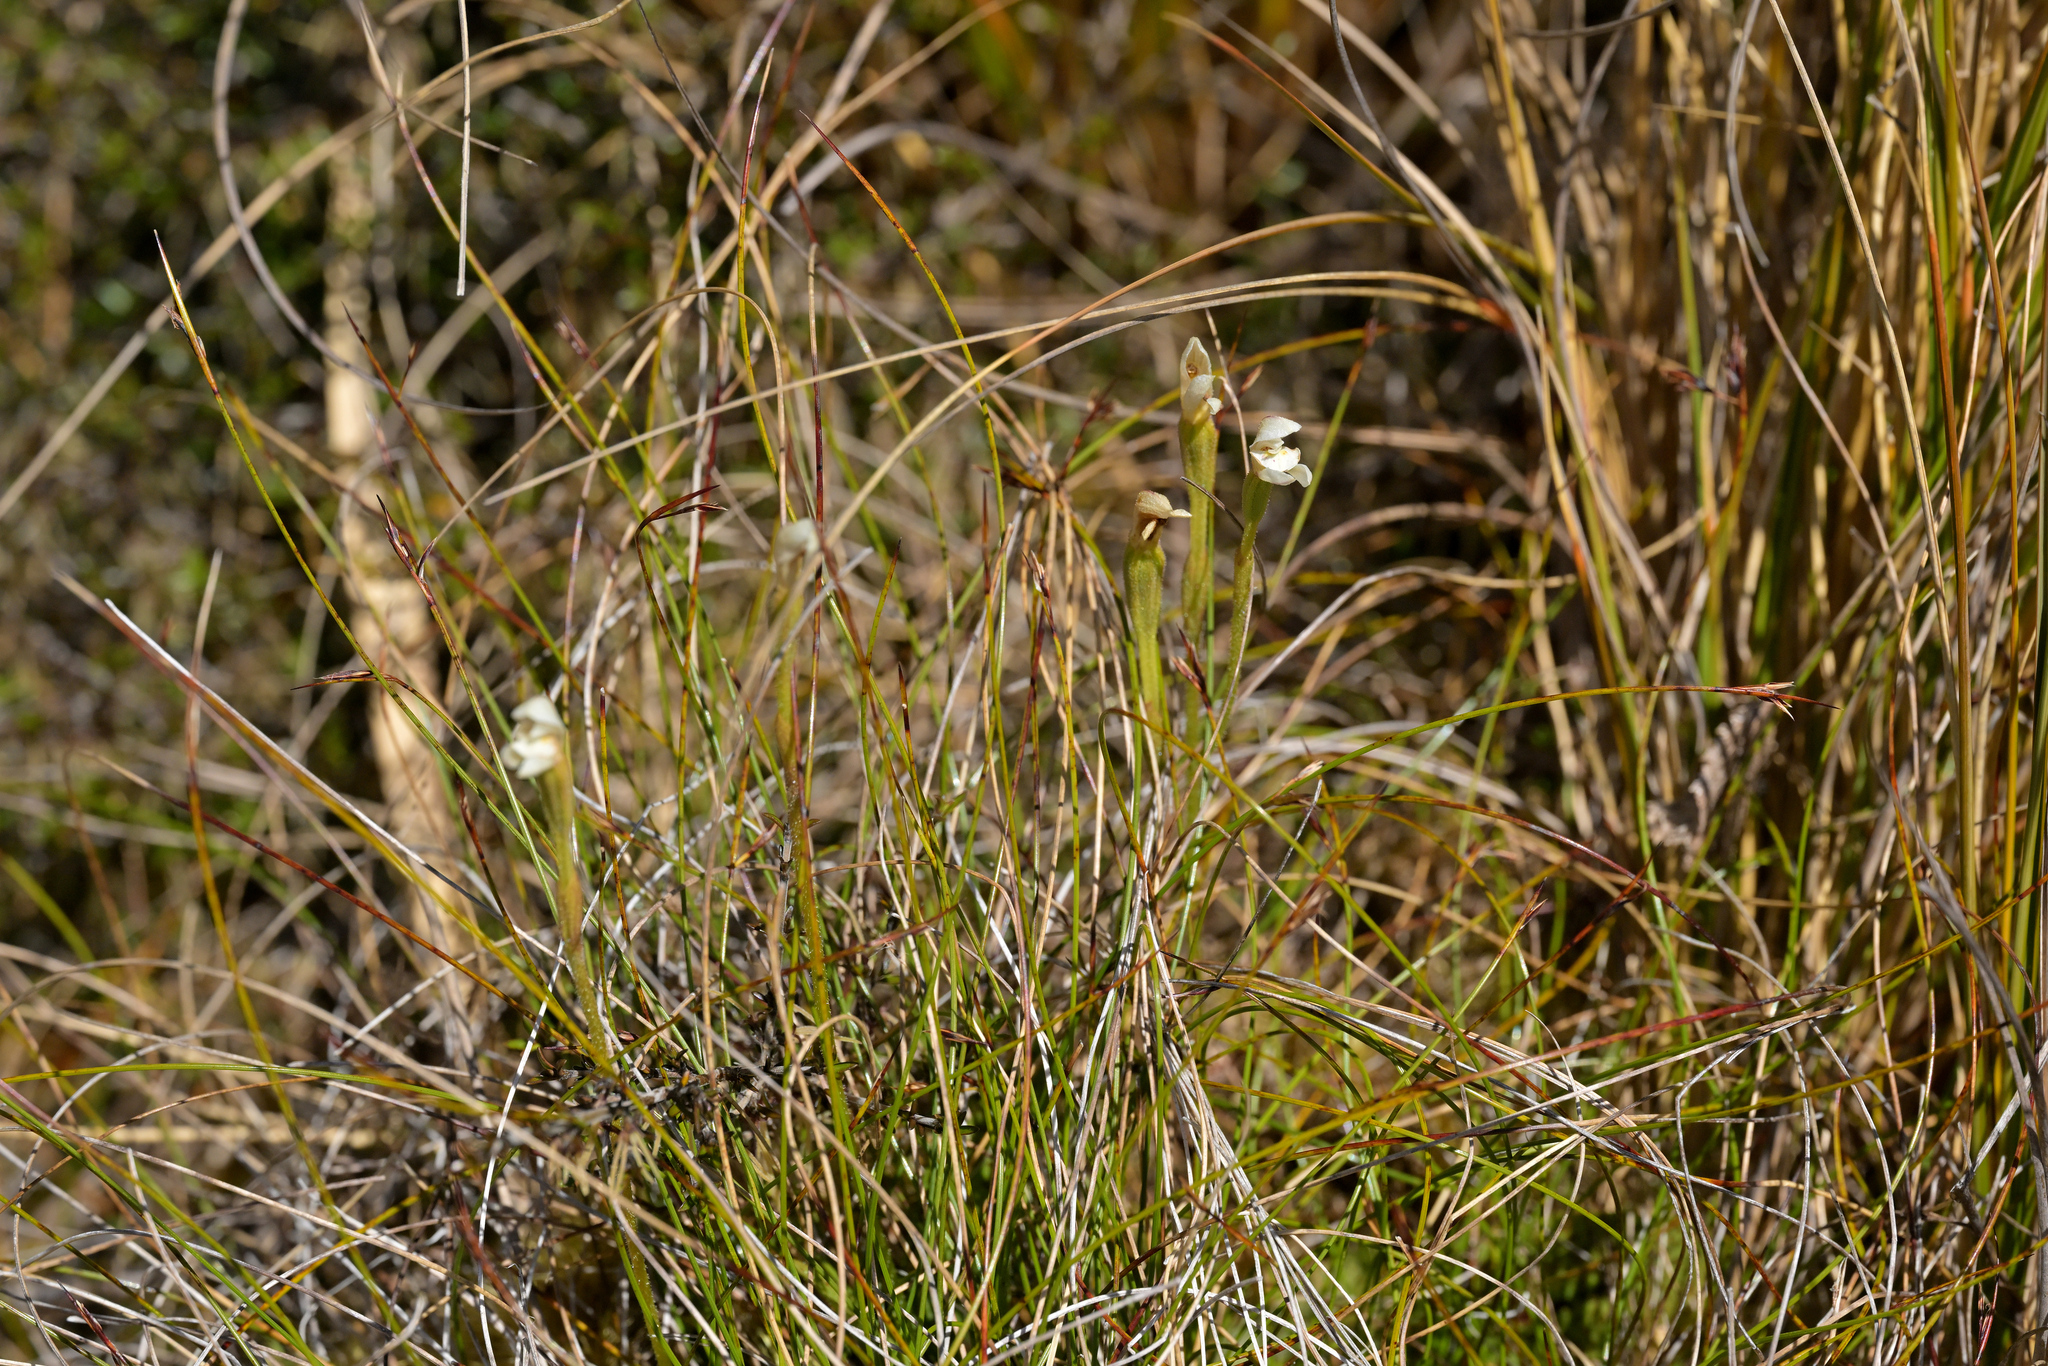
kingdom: Plantae
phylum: Tracheophyta
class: Liliopsida
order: Asparagales
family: Orchidaceae
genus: Aporostylis
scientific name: Aporostylis bifolia
